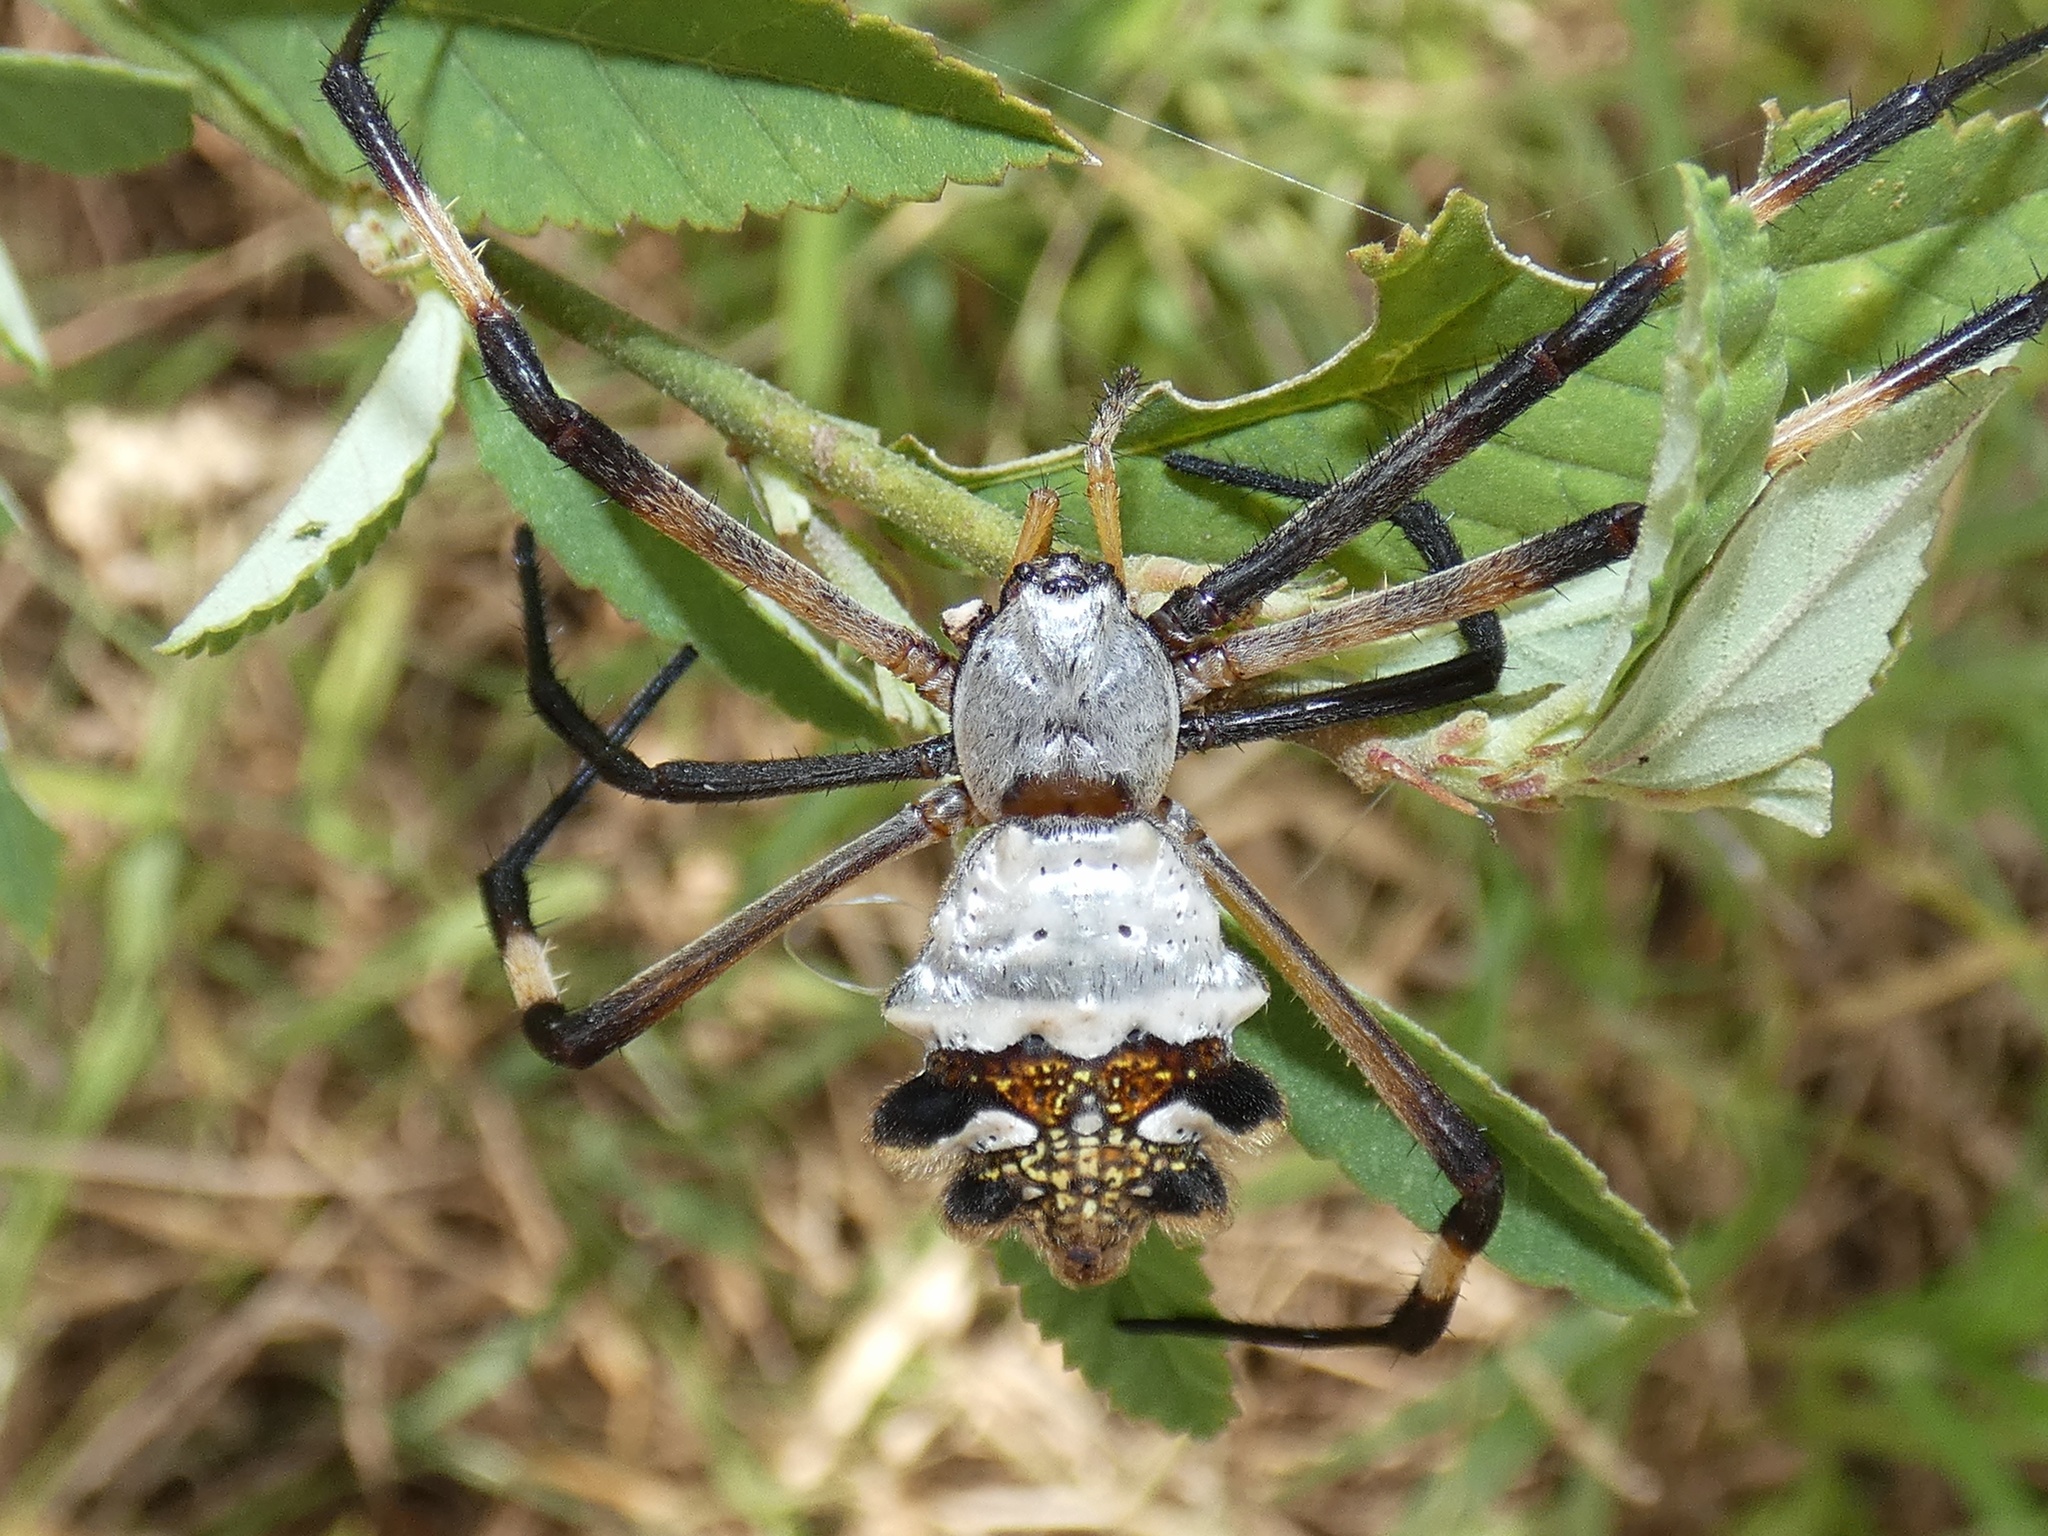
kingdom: Animalia
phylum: Arthropoda
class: Arachnida
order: Araneae
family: Araneidae
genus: Argiope
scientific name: Argiope argentata
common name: Orb weavers
